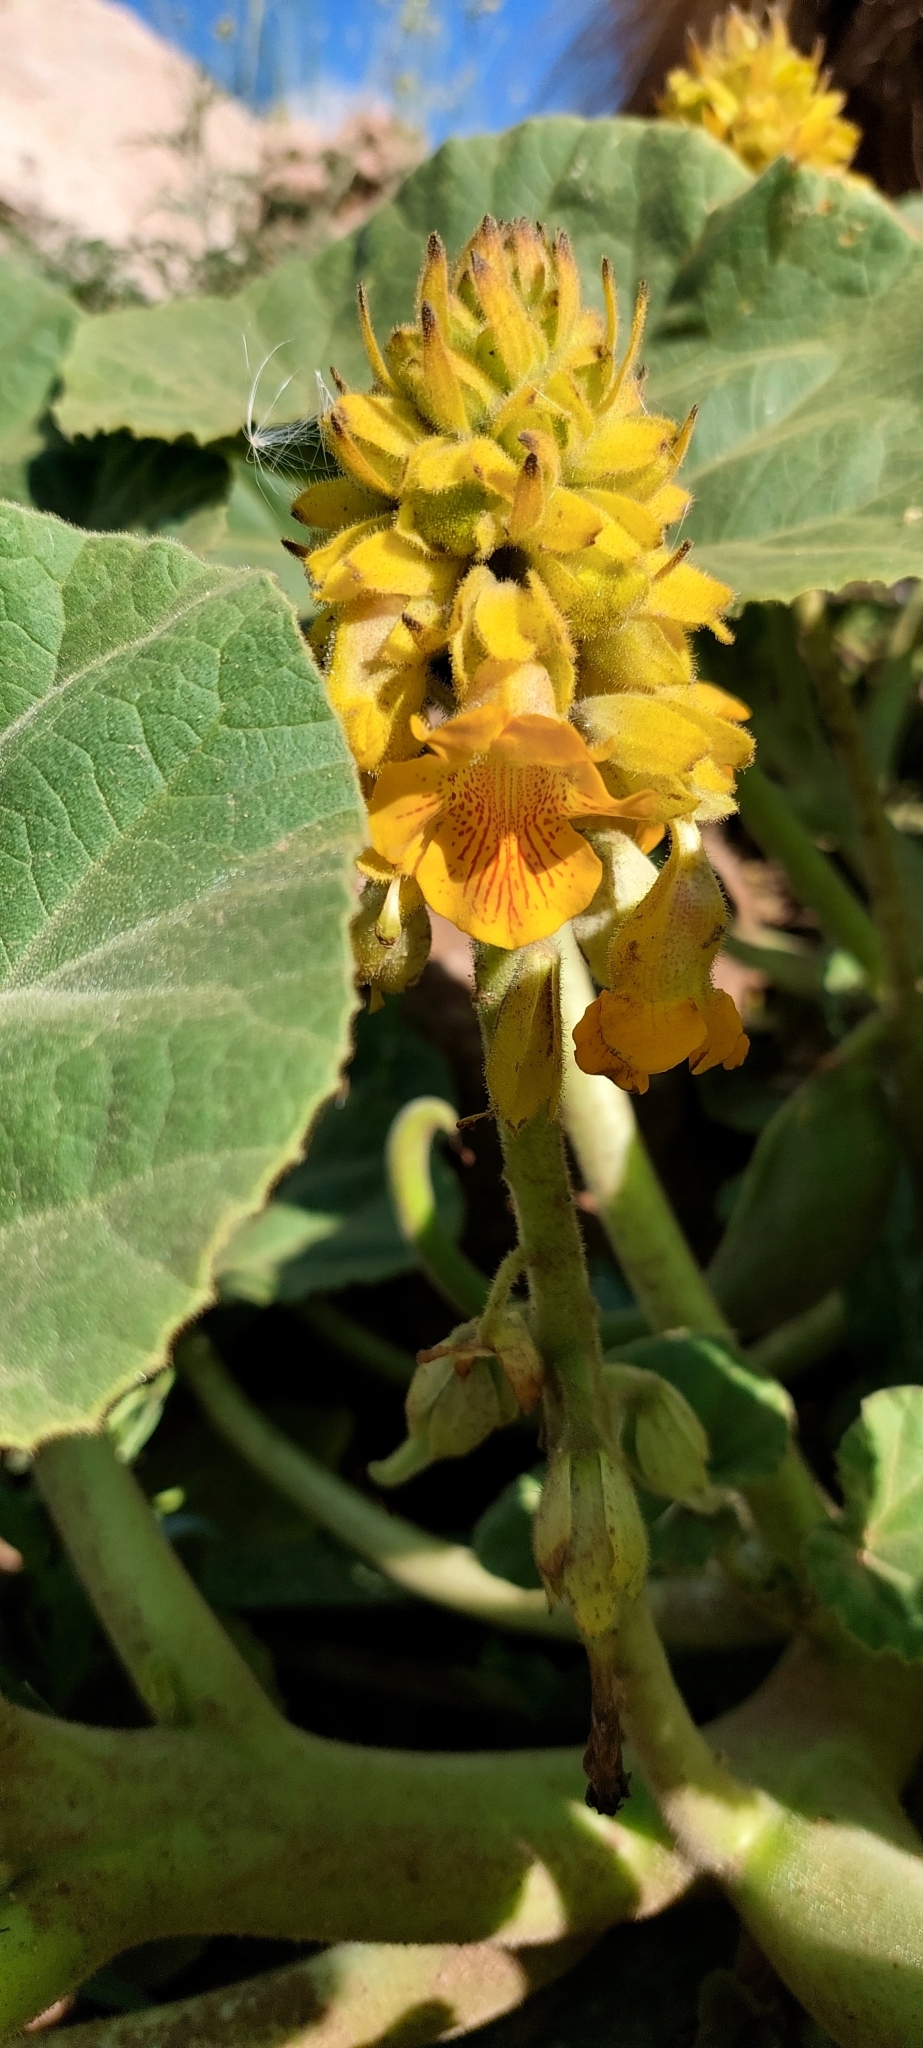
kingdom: Plantae
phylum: Tracheophyta
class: Magnoliopsida
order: Lamiales
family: Martyniaceae
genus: Ibicella
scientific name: Ibicella lutea
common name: Yellow unicorn-plant
